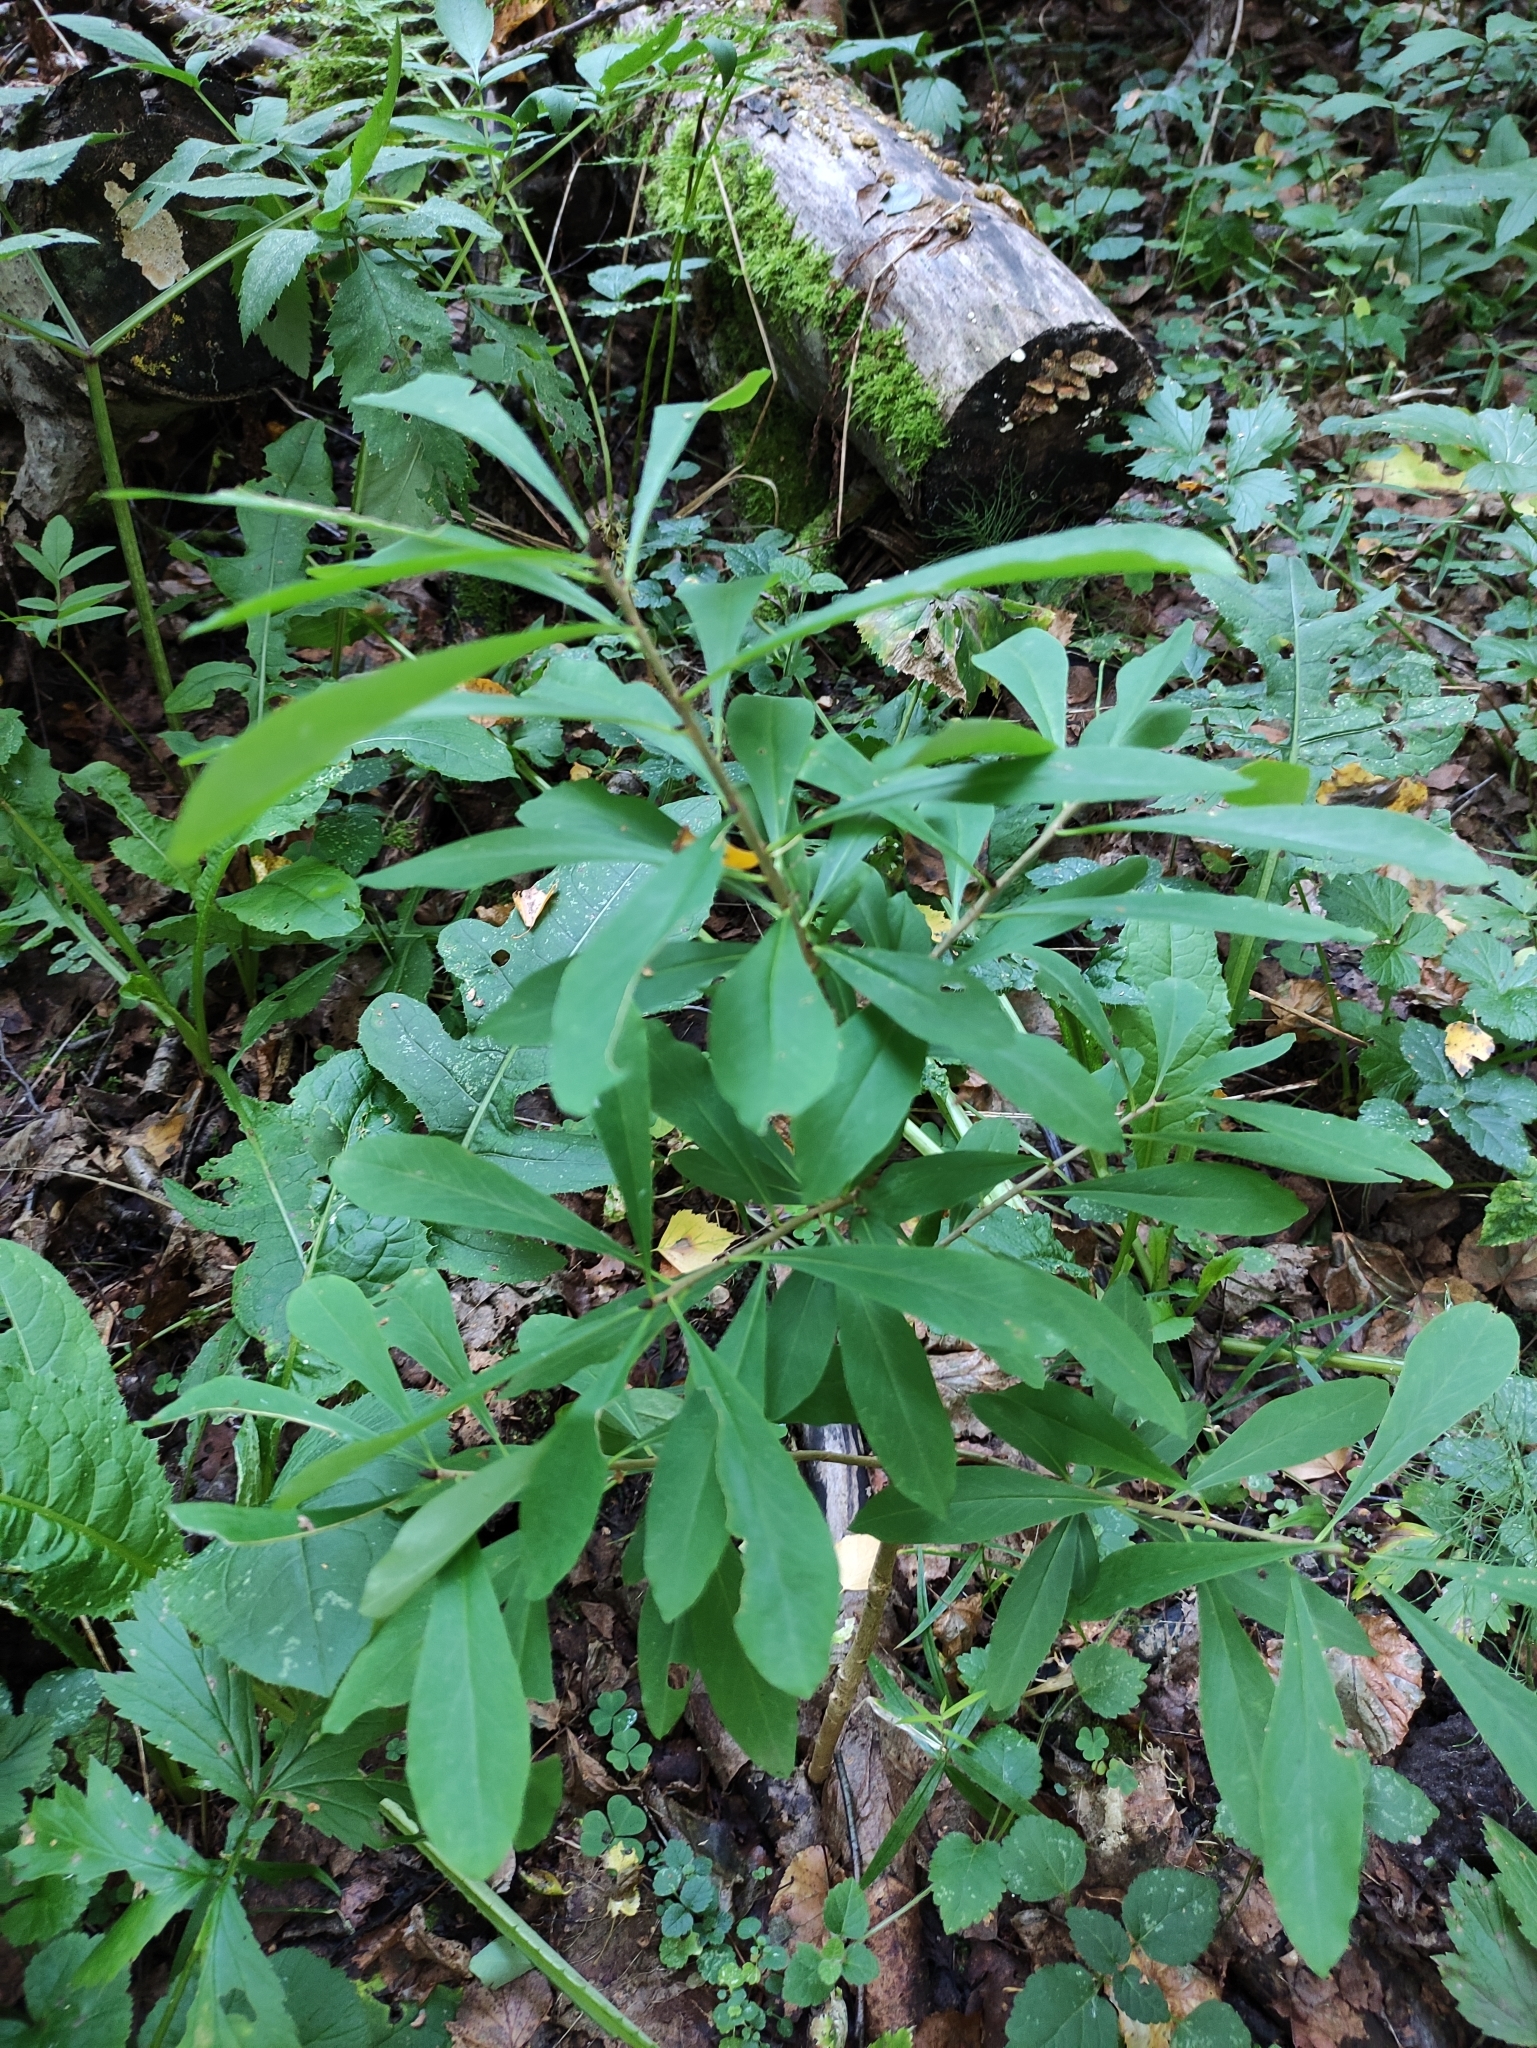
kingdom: Plantae
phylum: Tracheophyta
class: Magnoliopsida
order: Malvales
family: Thymelaeaceae
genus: Daphne
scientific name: Daphne mezereum
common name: Mezereon
